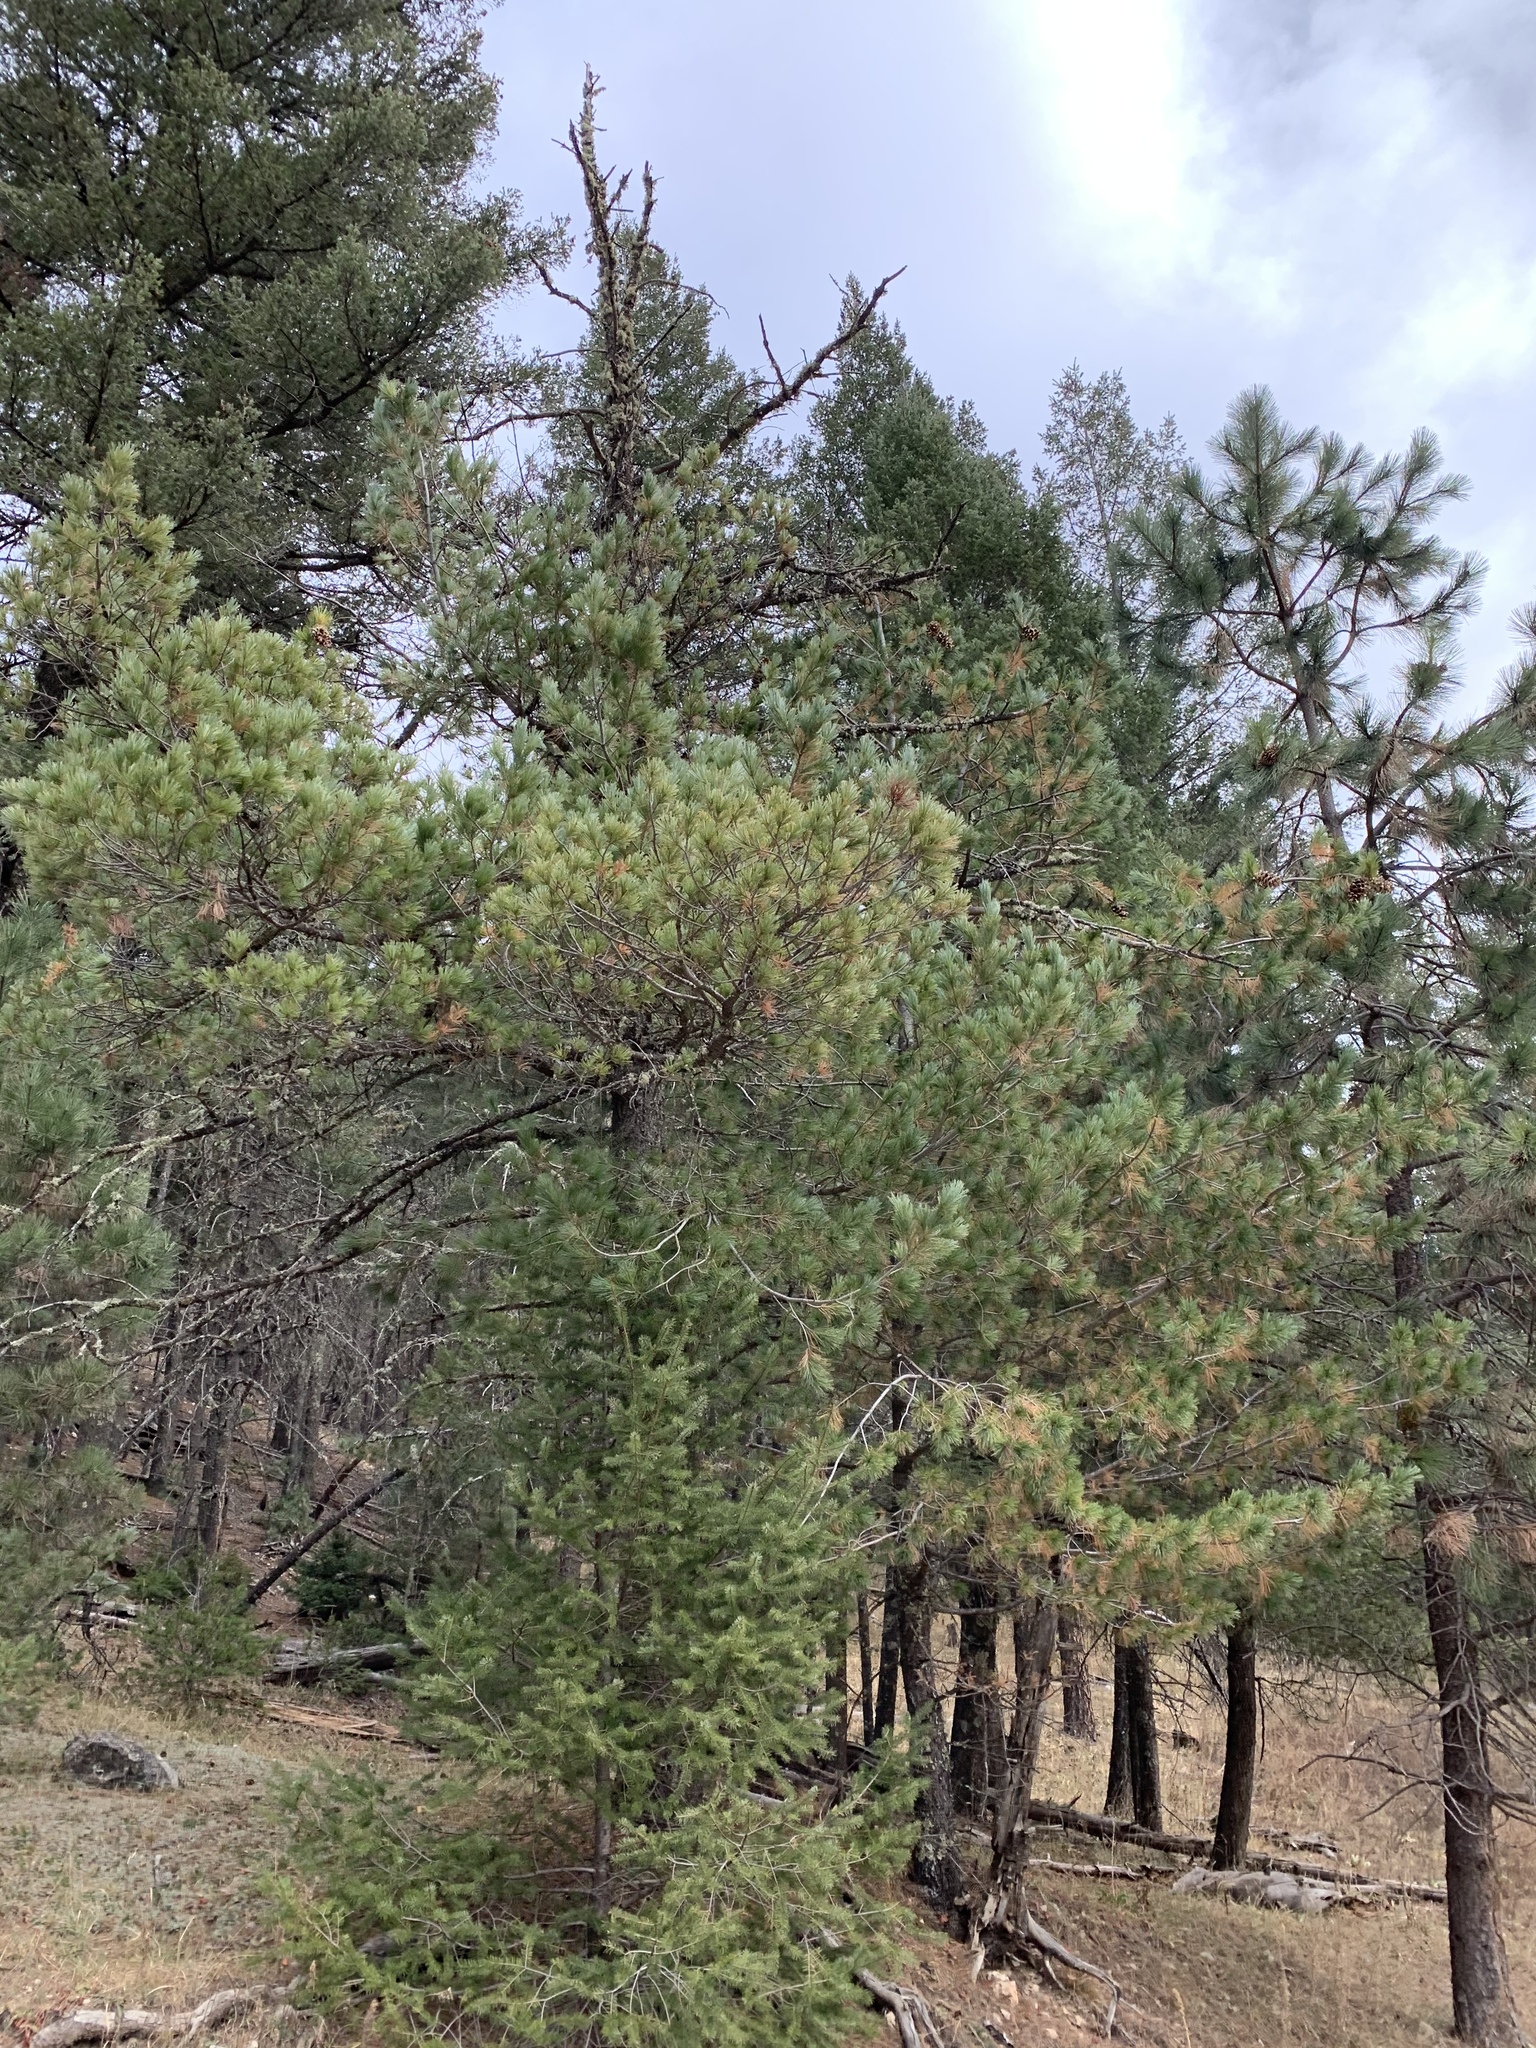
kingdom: Plantae
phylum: Tracheophyta
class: Pinopsida
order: Pinales
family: Pinaceae
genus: Pinus
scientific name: Pinus strobiformis
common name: Southwestern white pine
